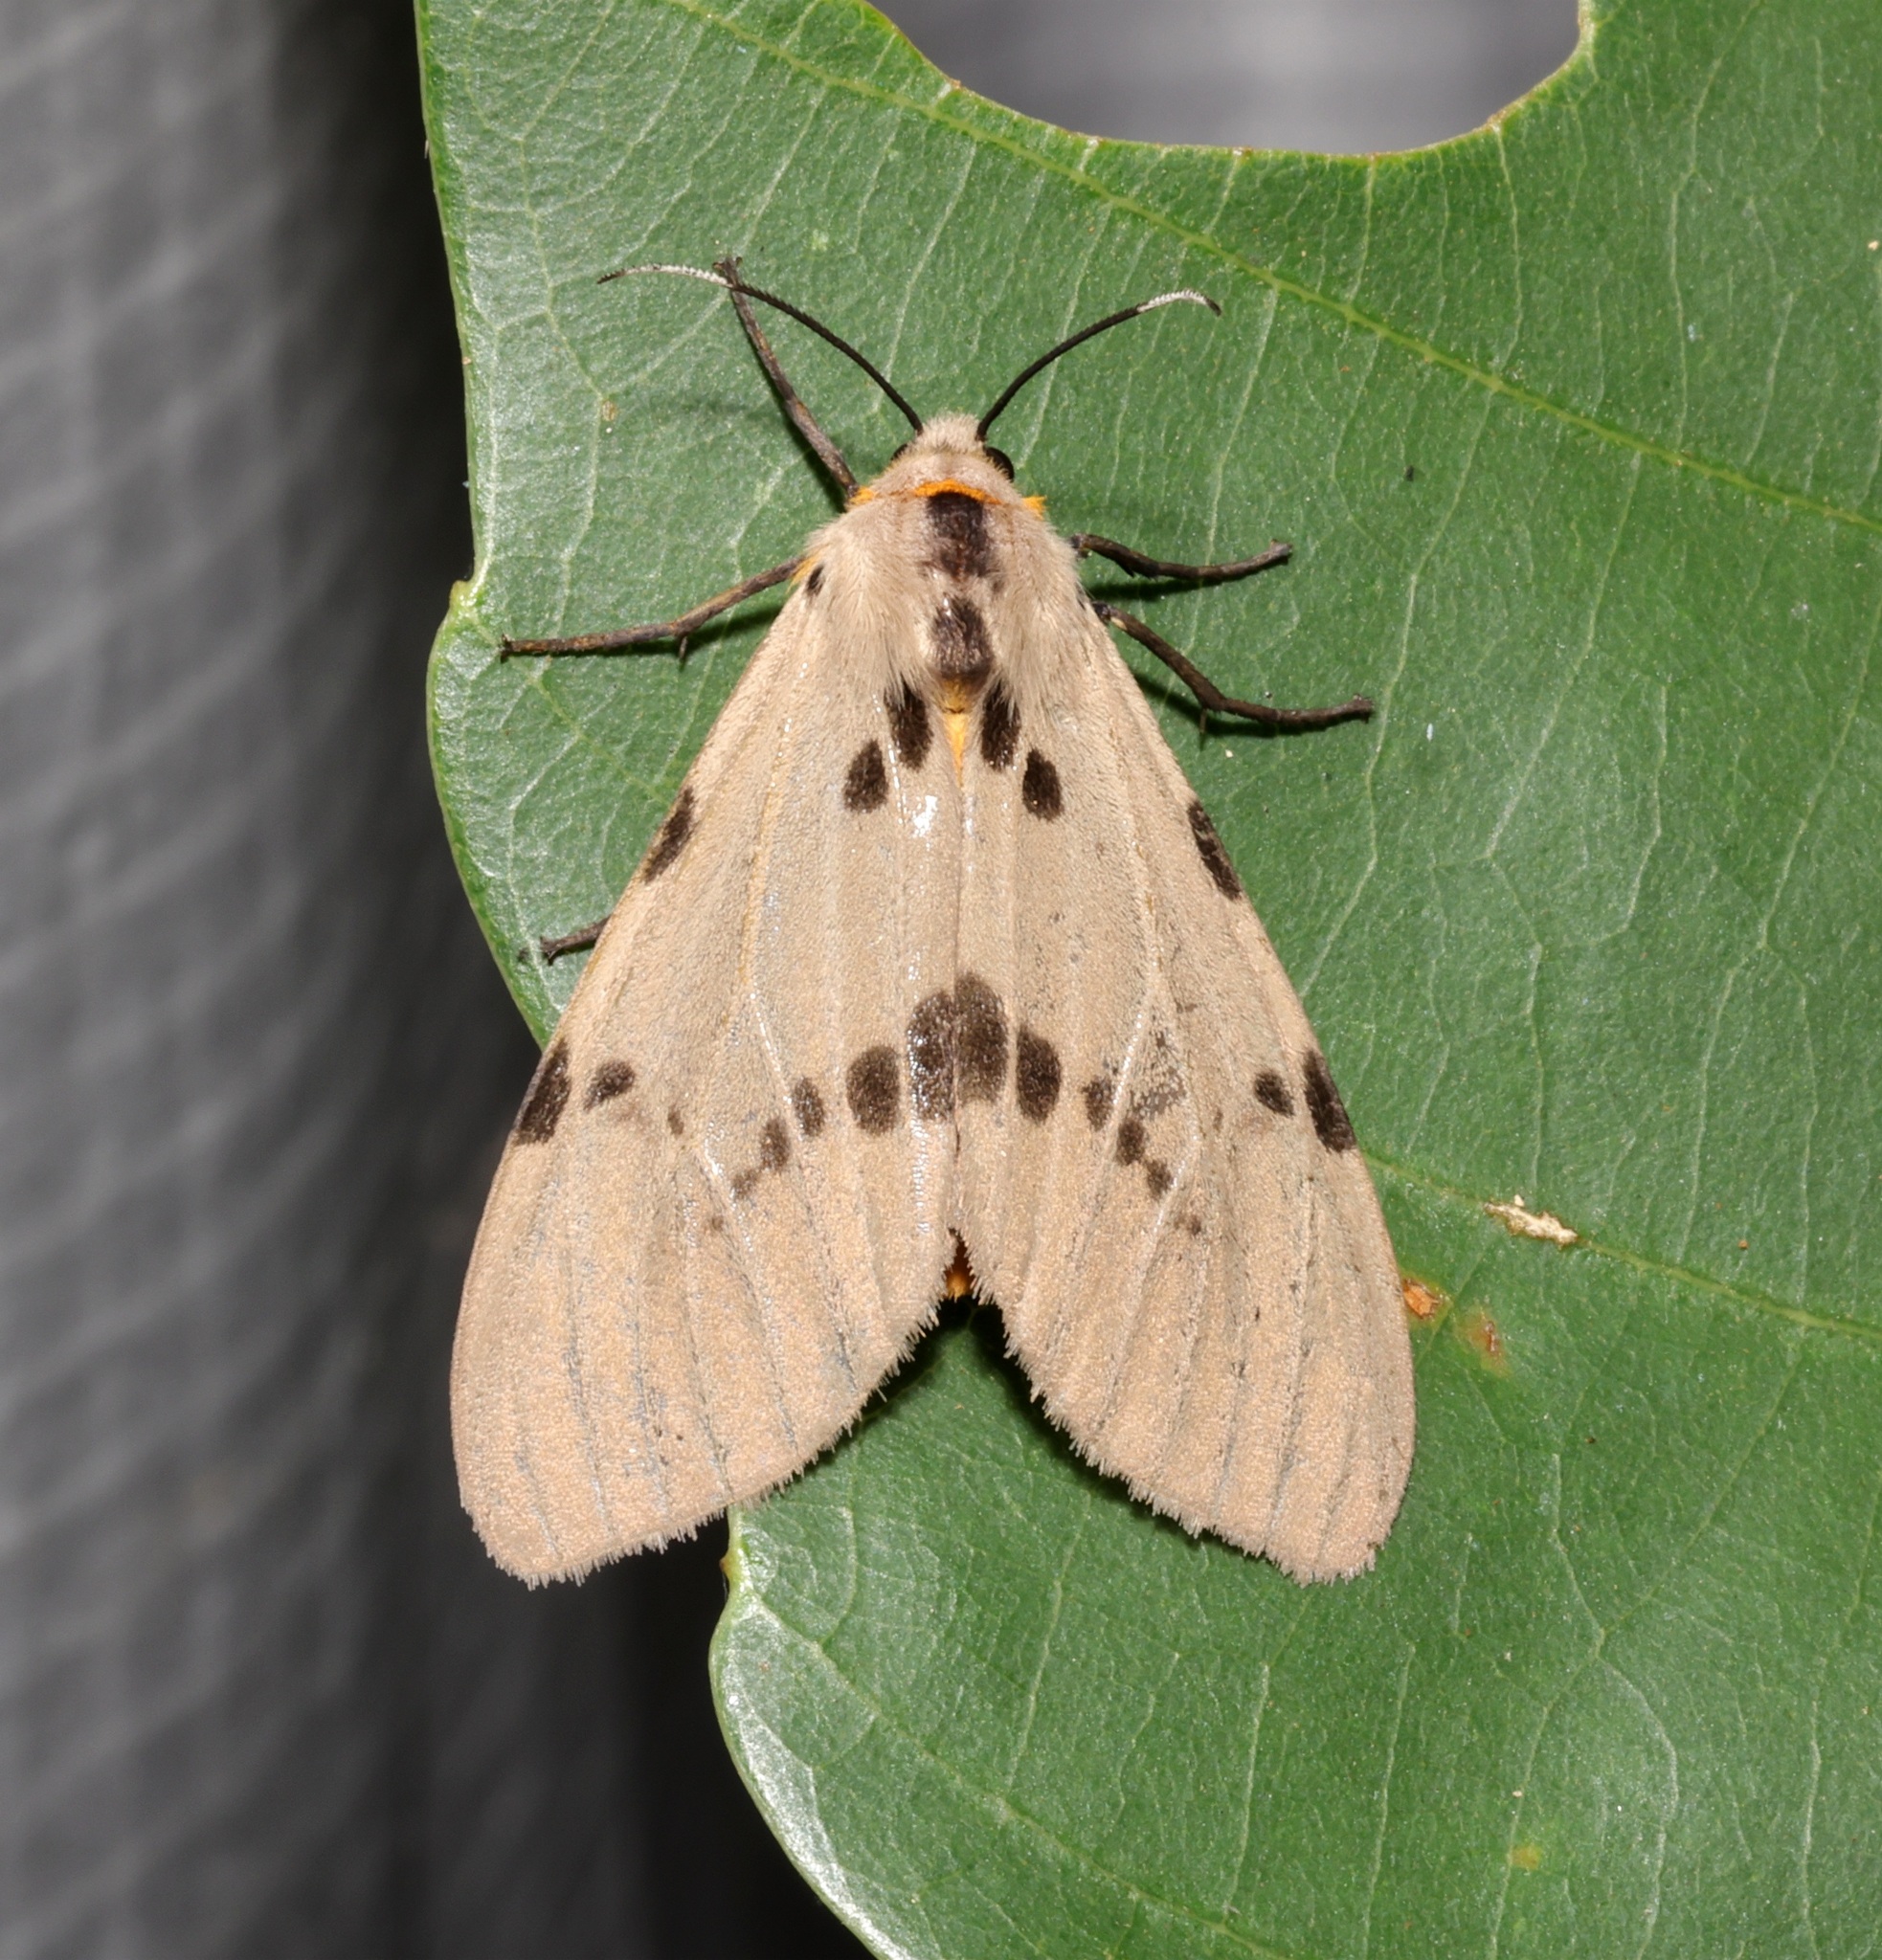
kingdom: Animalia
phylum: Arthropoda
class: Insecta
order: Lepidoptera
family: Erebidae
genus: Amsactoides
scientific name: Amsactoides
